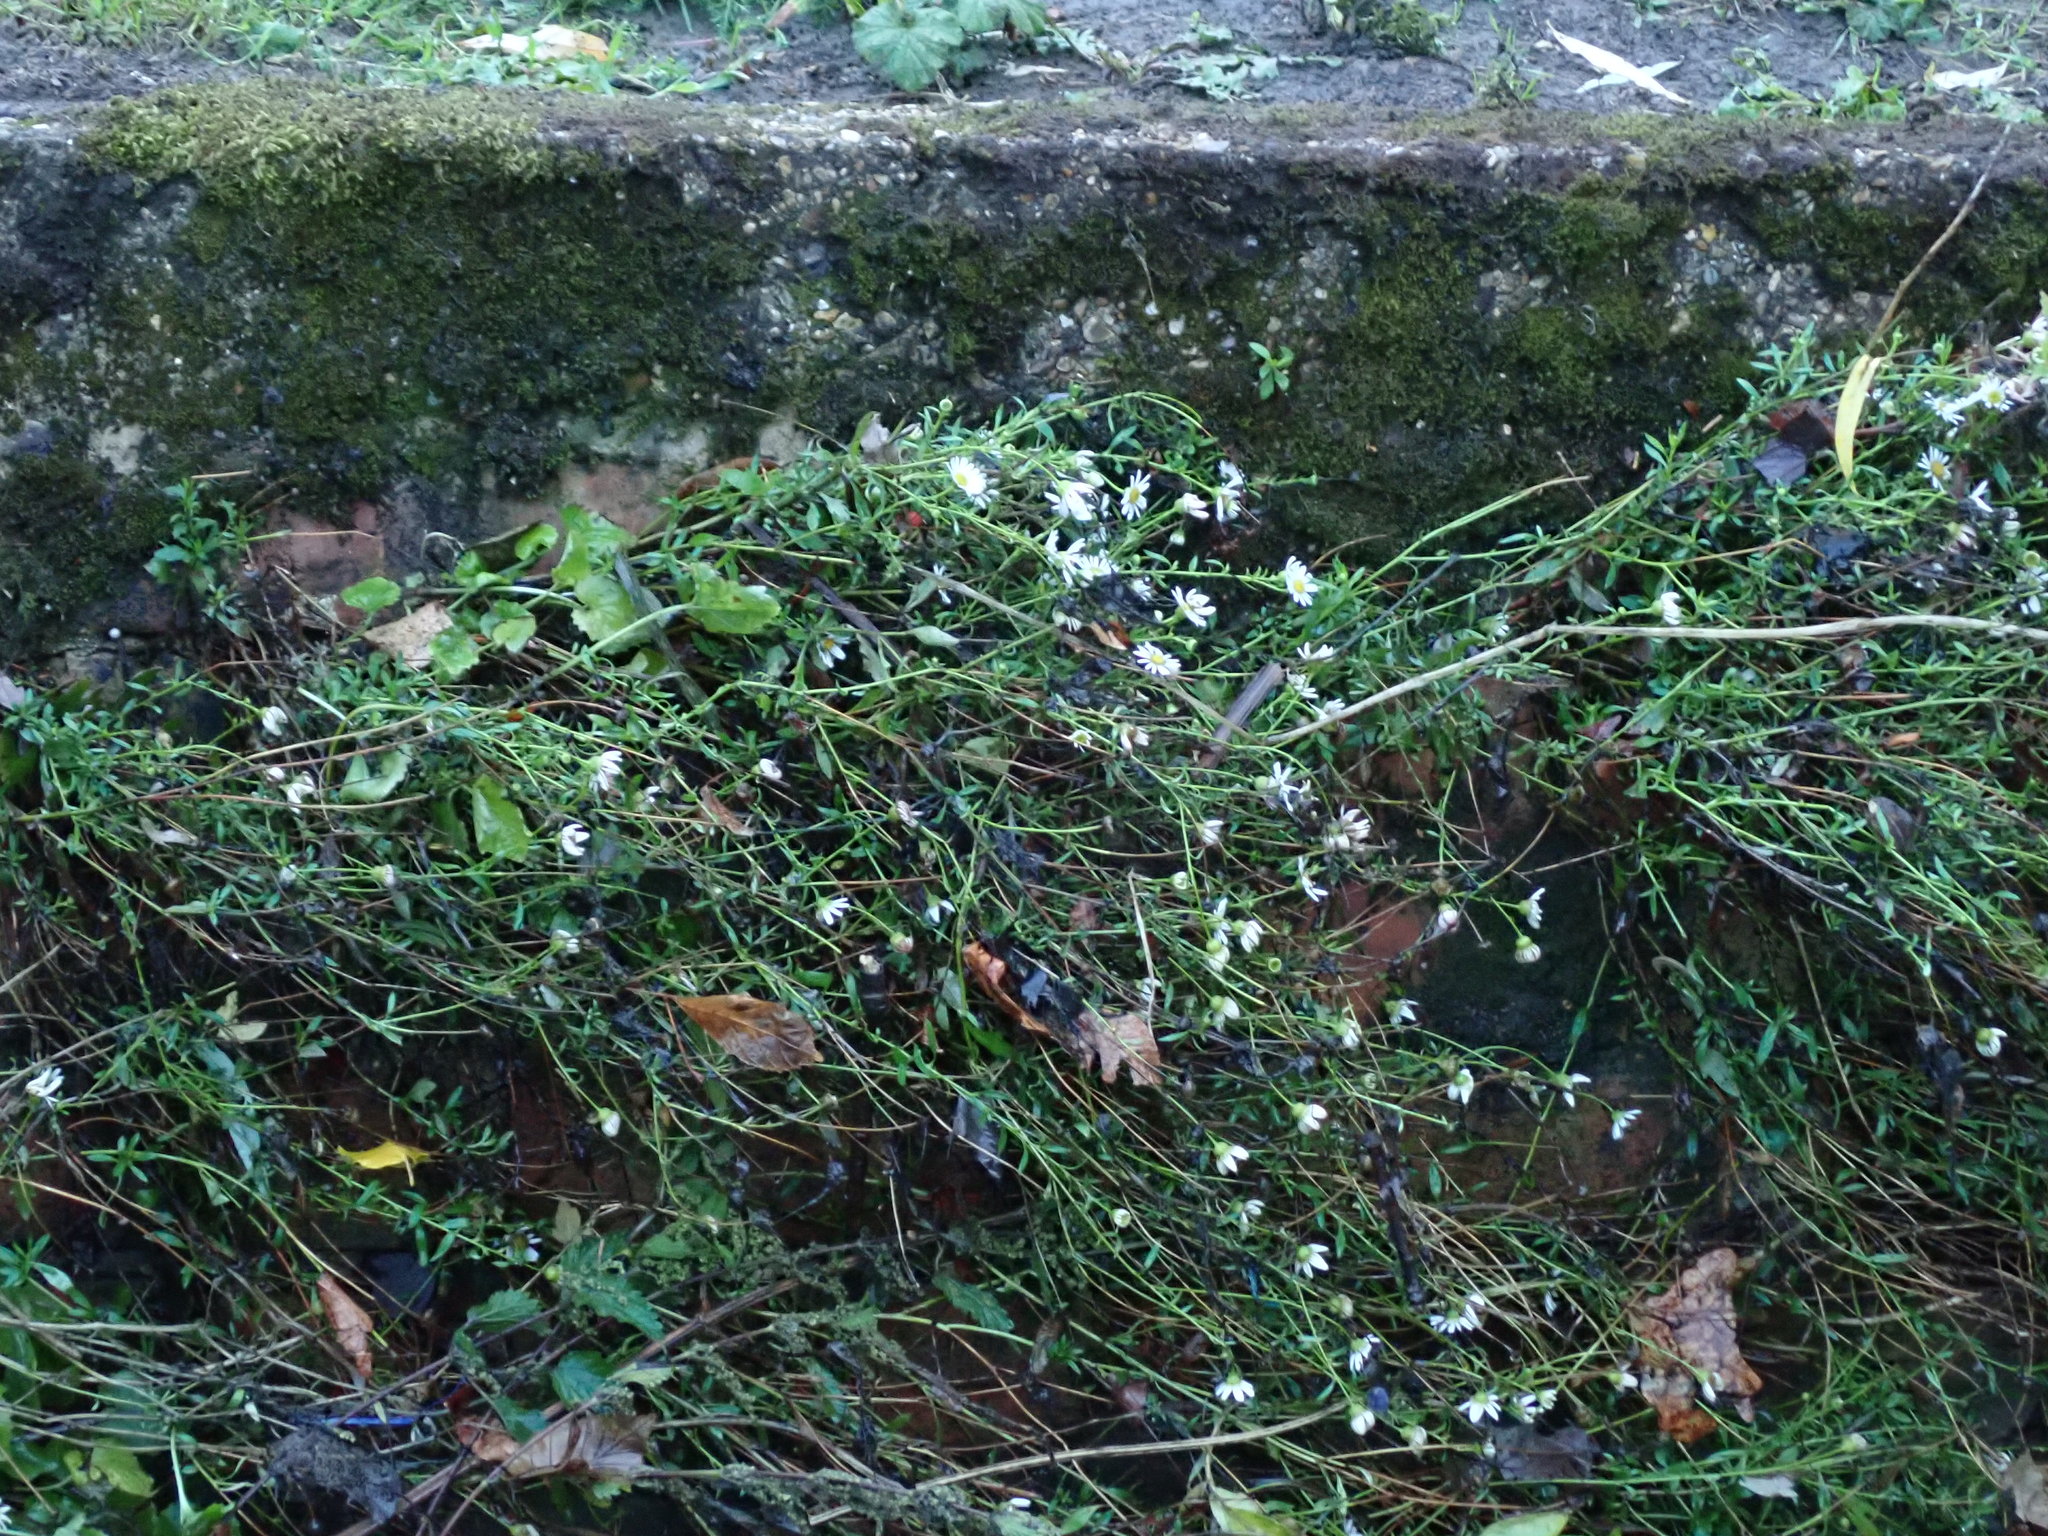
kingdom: Plantae
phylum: Tracheophyta
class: Magnoliopsida
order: Asterales
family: Asteraceae
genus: Erigeron
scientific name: Erigeron karvinskianus
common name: Mexican fleabane
